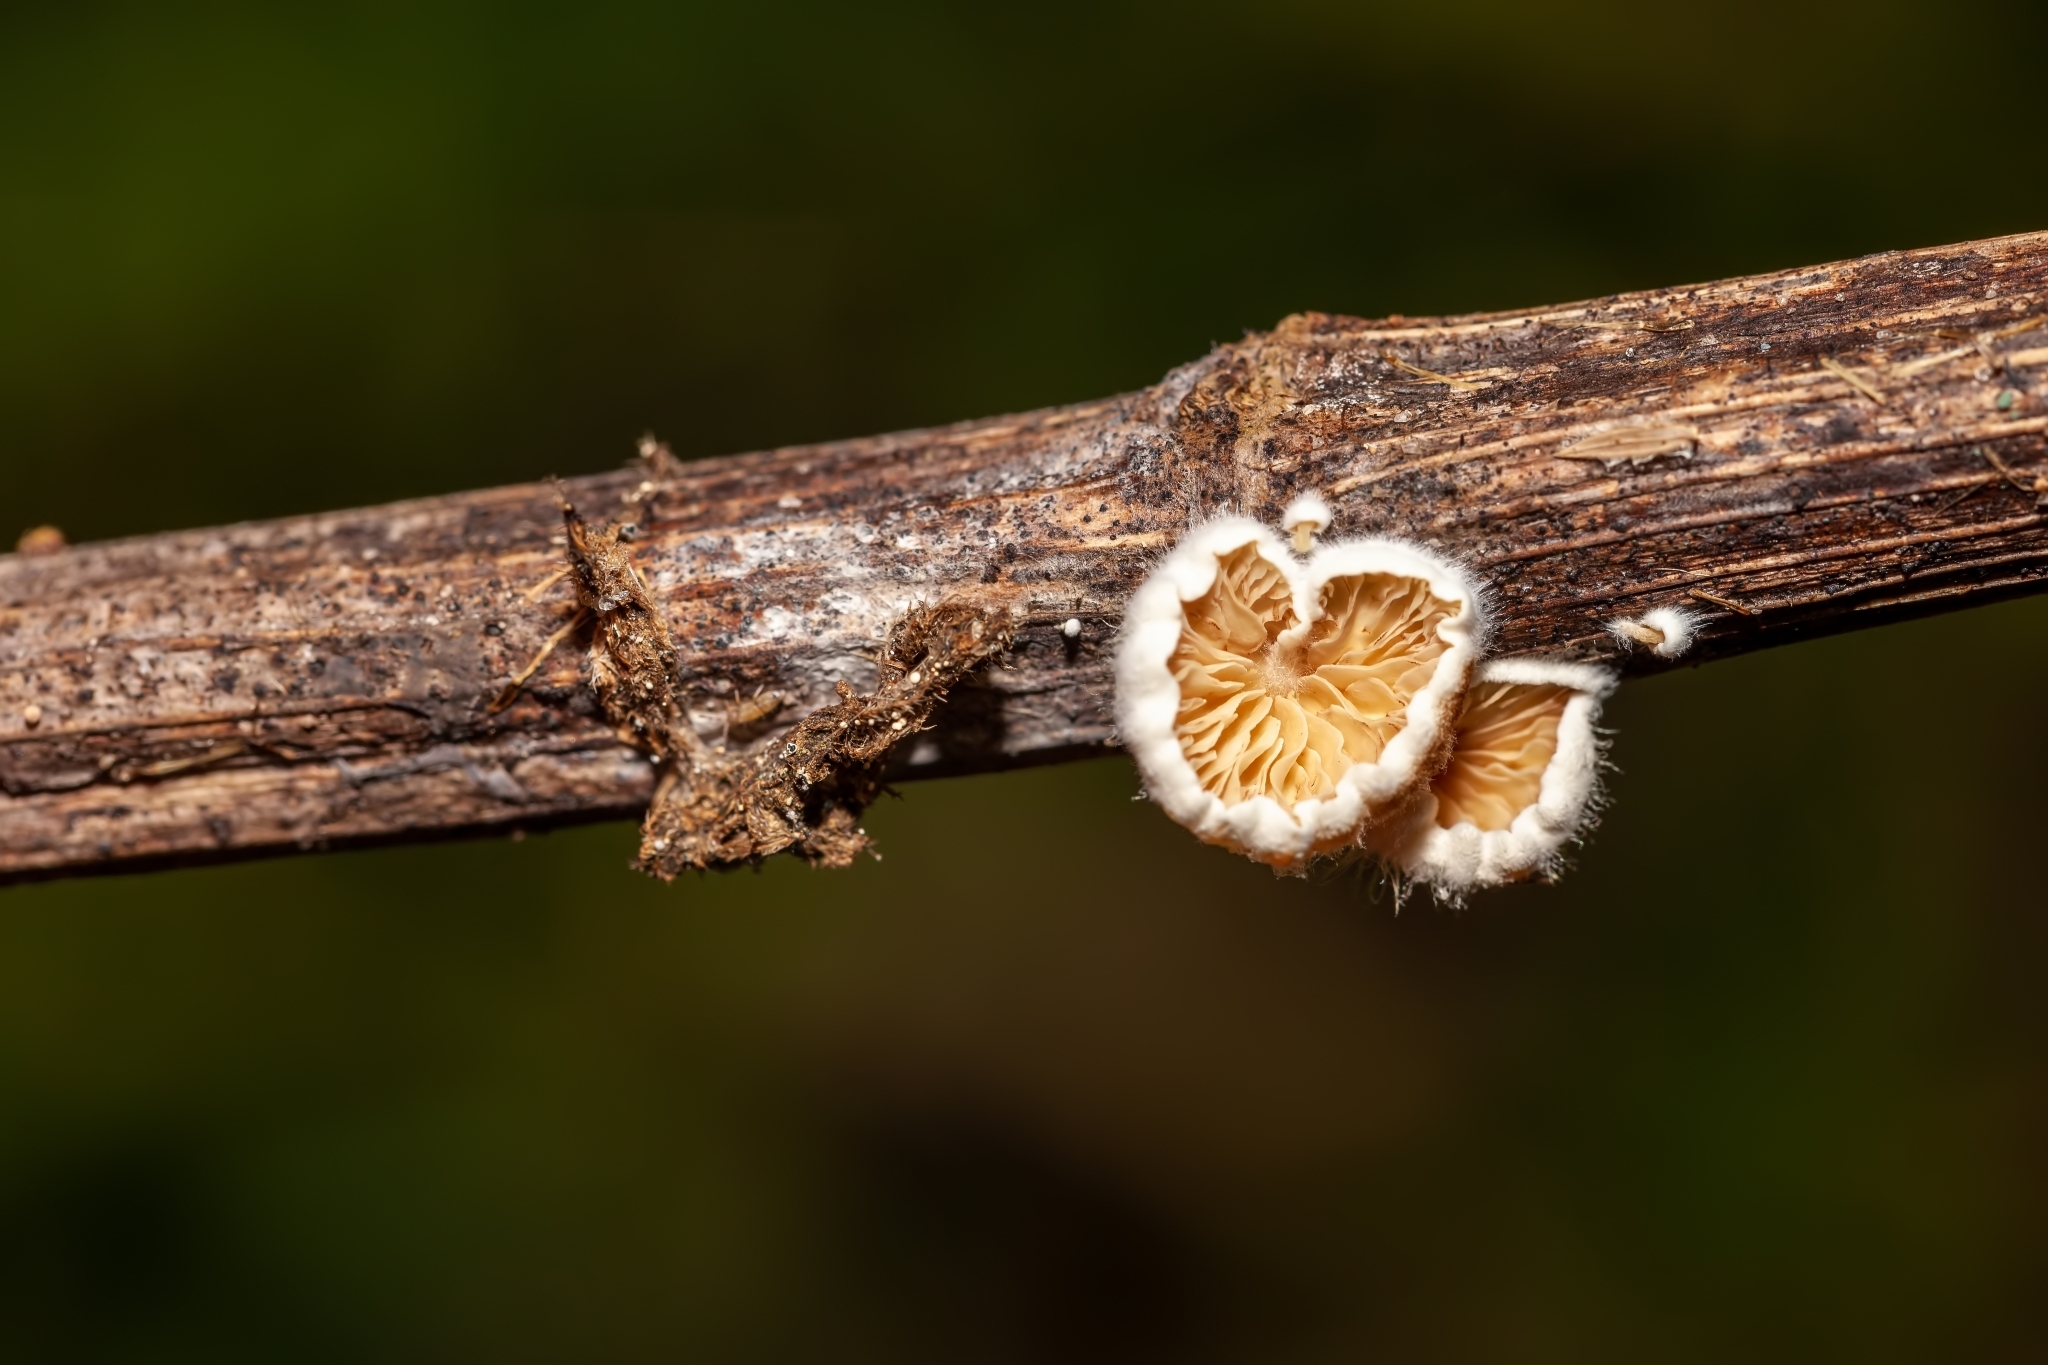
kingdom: Fungi
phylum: Basidiomycota
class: Agaricomycetes
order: Agaricales
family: Schizophyllaceae
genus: Schizophyllum
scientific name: Schizophyllum commune
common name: Common porecrust
